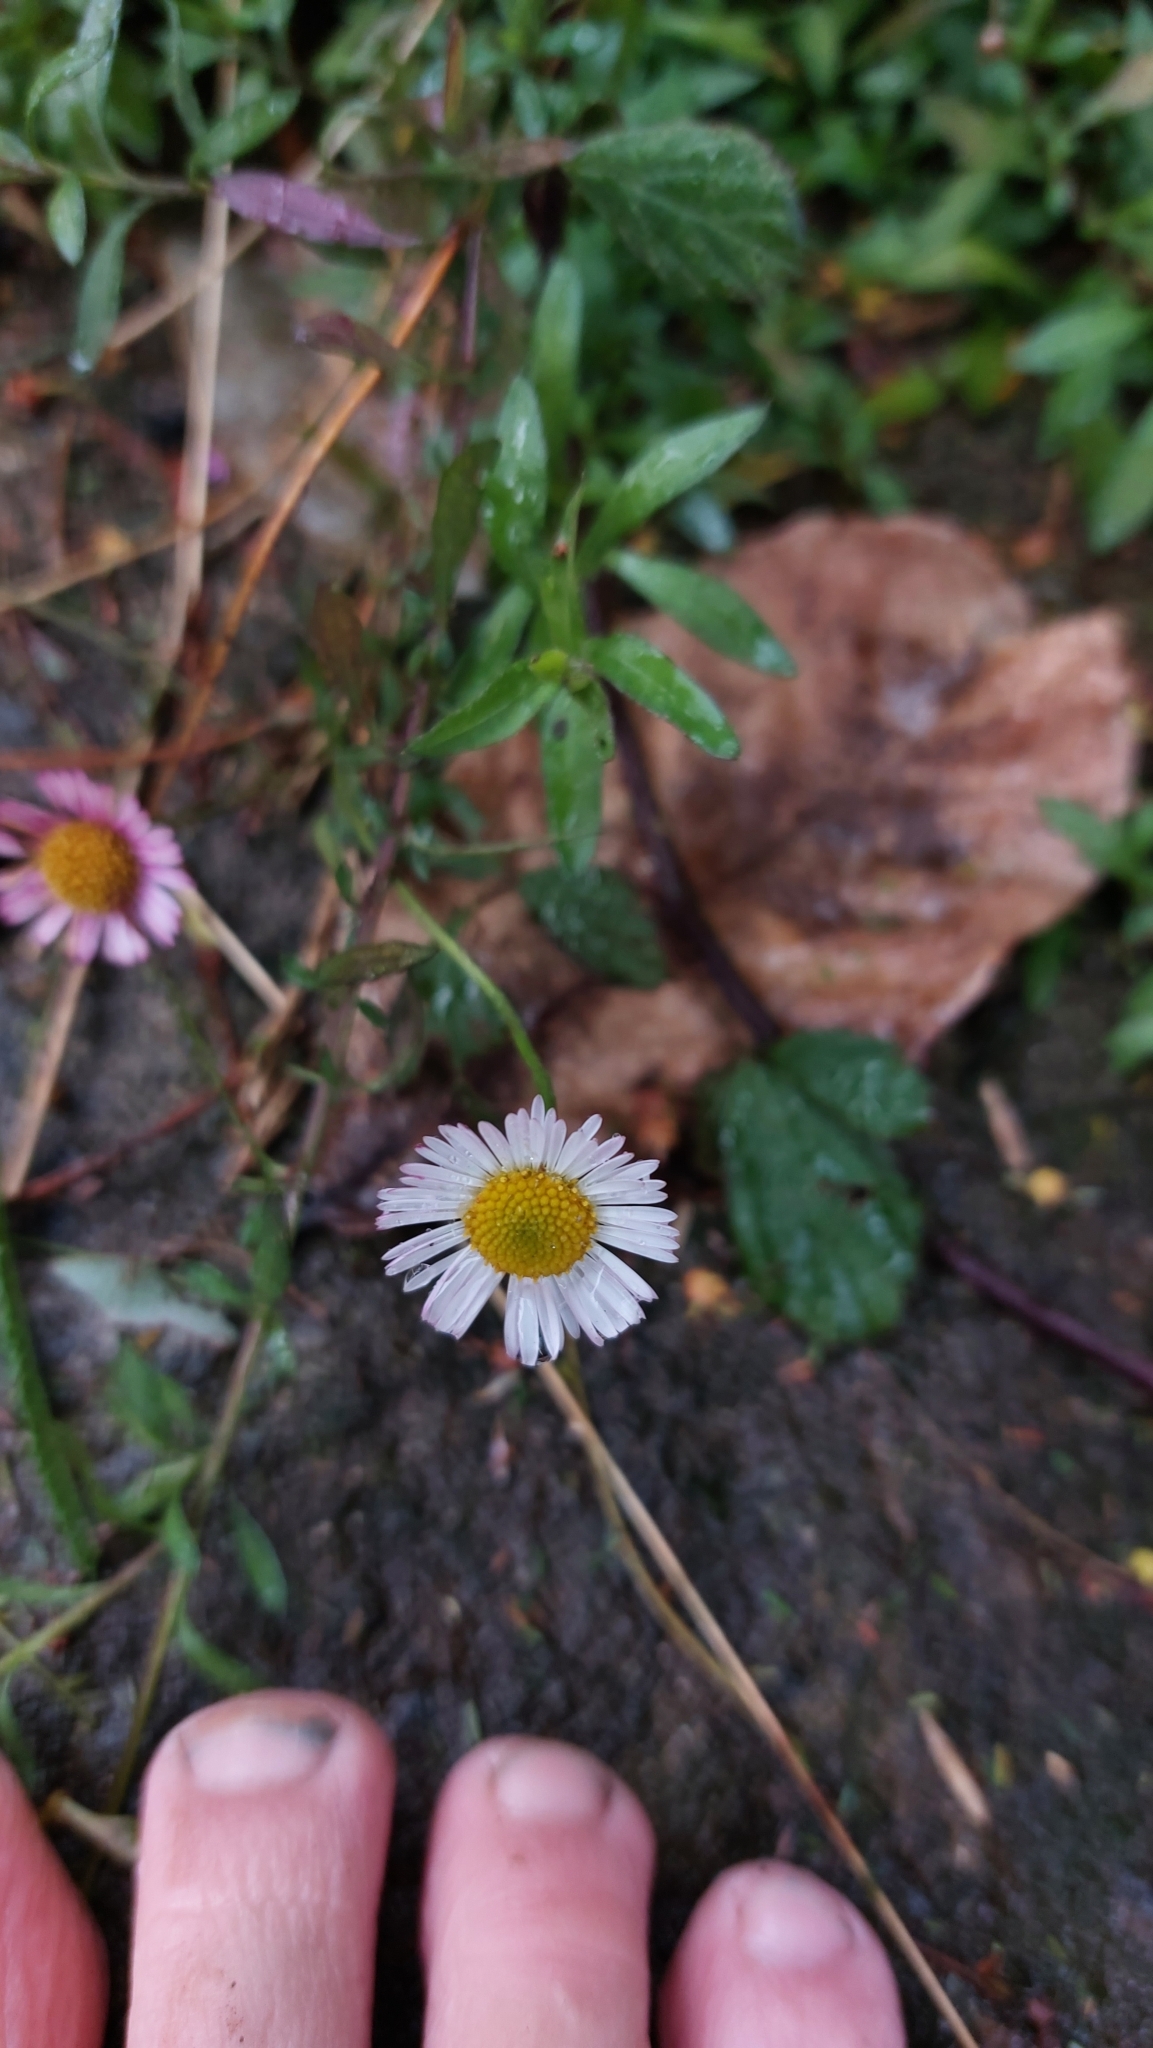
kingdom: Plantae
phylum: Tracheophyta
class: Magnoliopsida
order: Asterales
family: Asteraceae
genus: Erigeron
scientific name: Erigeron karvinskianus
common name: Mexican fleabane
